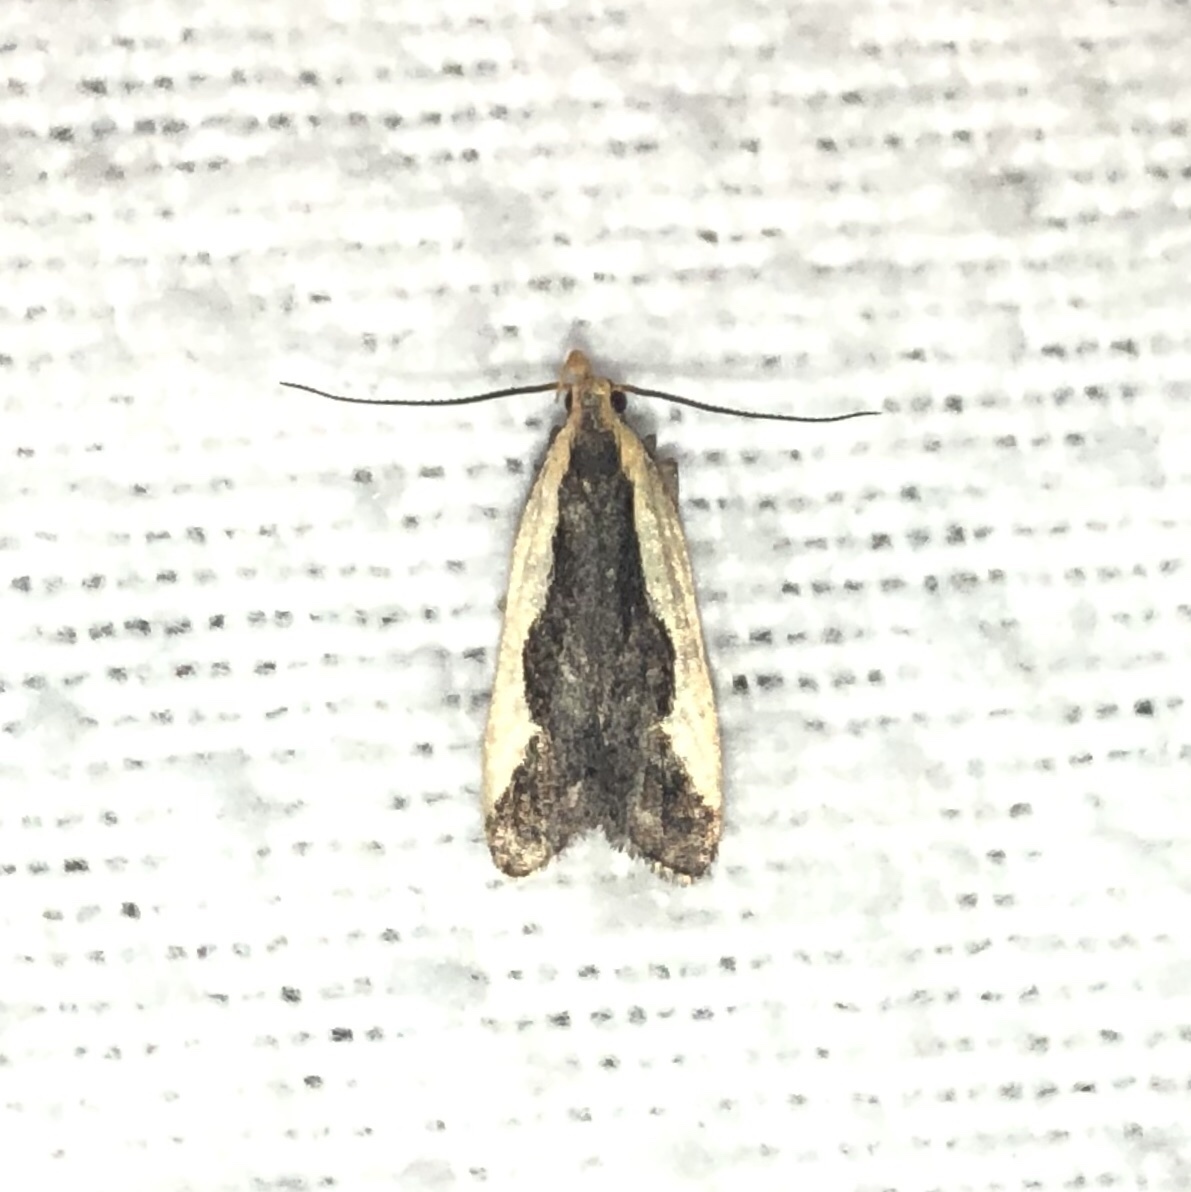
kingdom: Animalia
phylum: Arthropoda
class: Insecta
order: Lepidoptera
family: Gelechiidae
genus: Dichomeris
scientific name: Dichomeris inserrata
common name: Indented dichomeris moth
